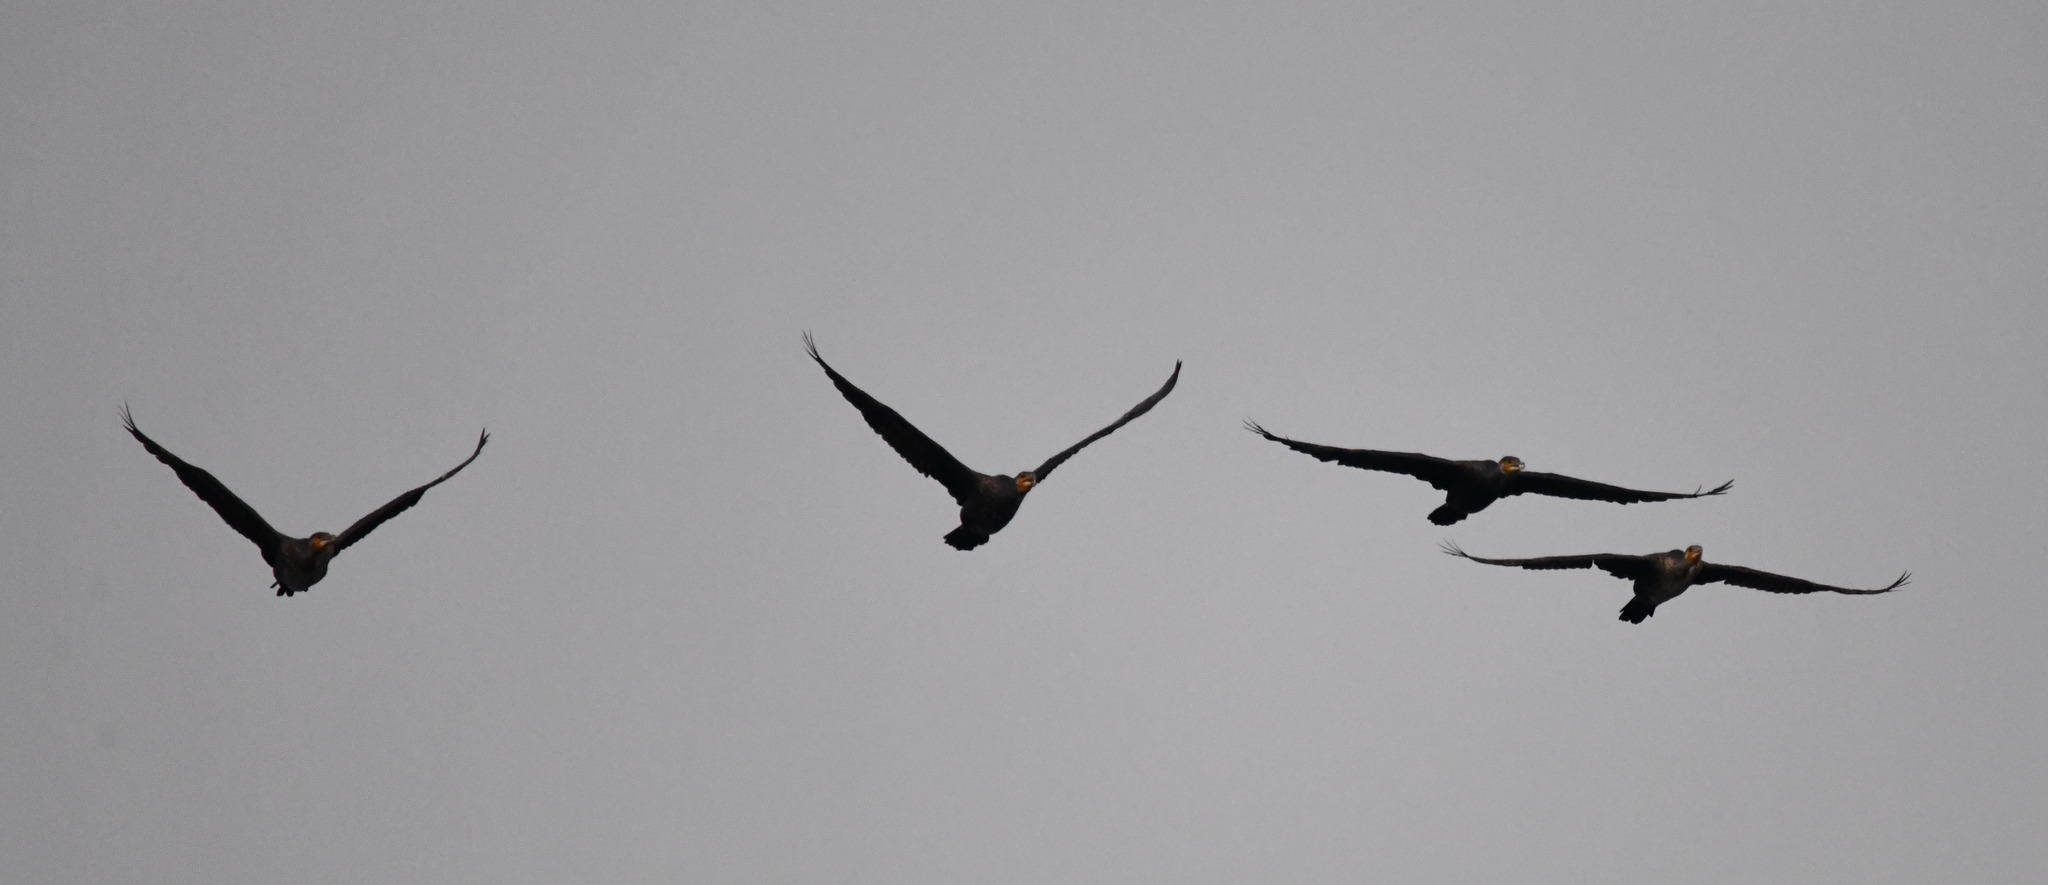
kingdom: Animalia
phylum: Chordata
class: Aves
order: Suliformes
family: Phalacrocoracidae
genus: Phalacrocorax
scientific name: Phalacrocorax carbo
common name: Great cormorant
